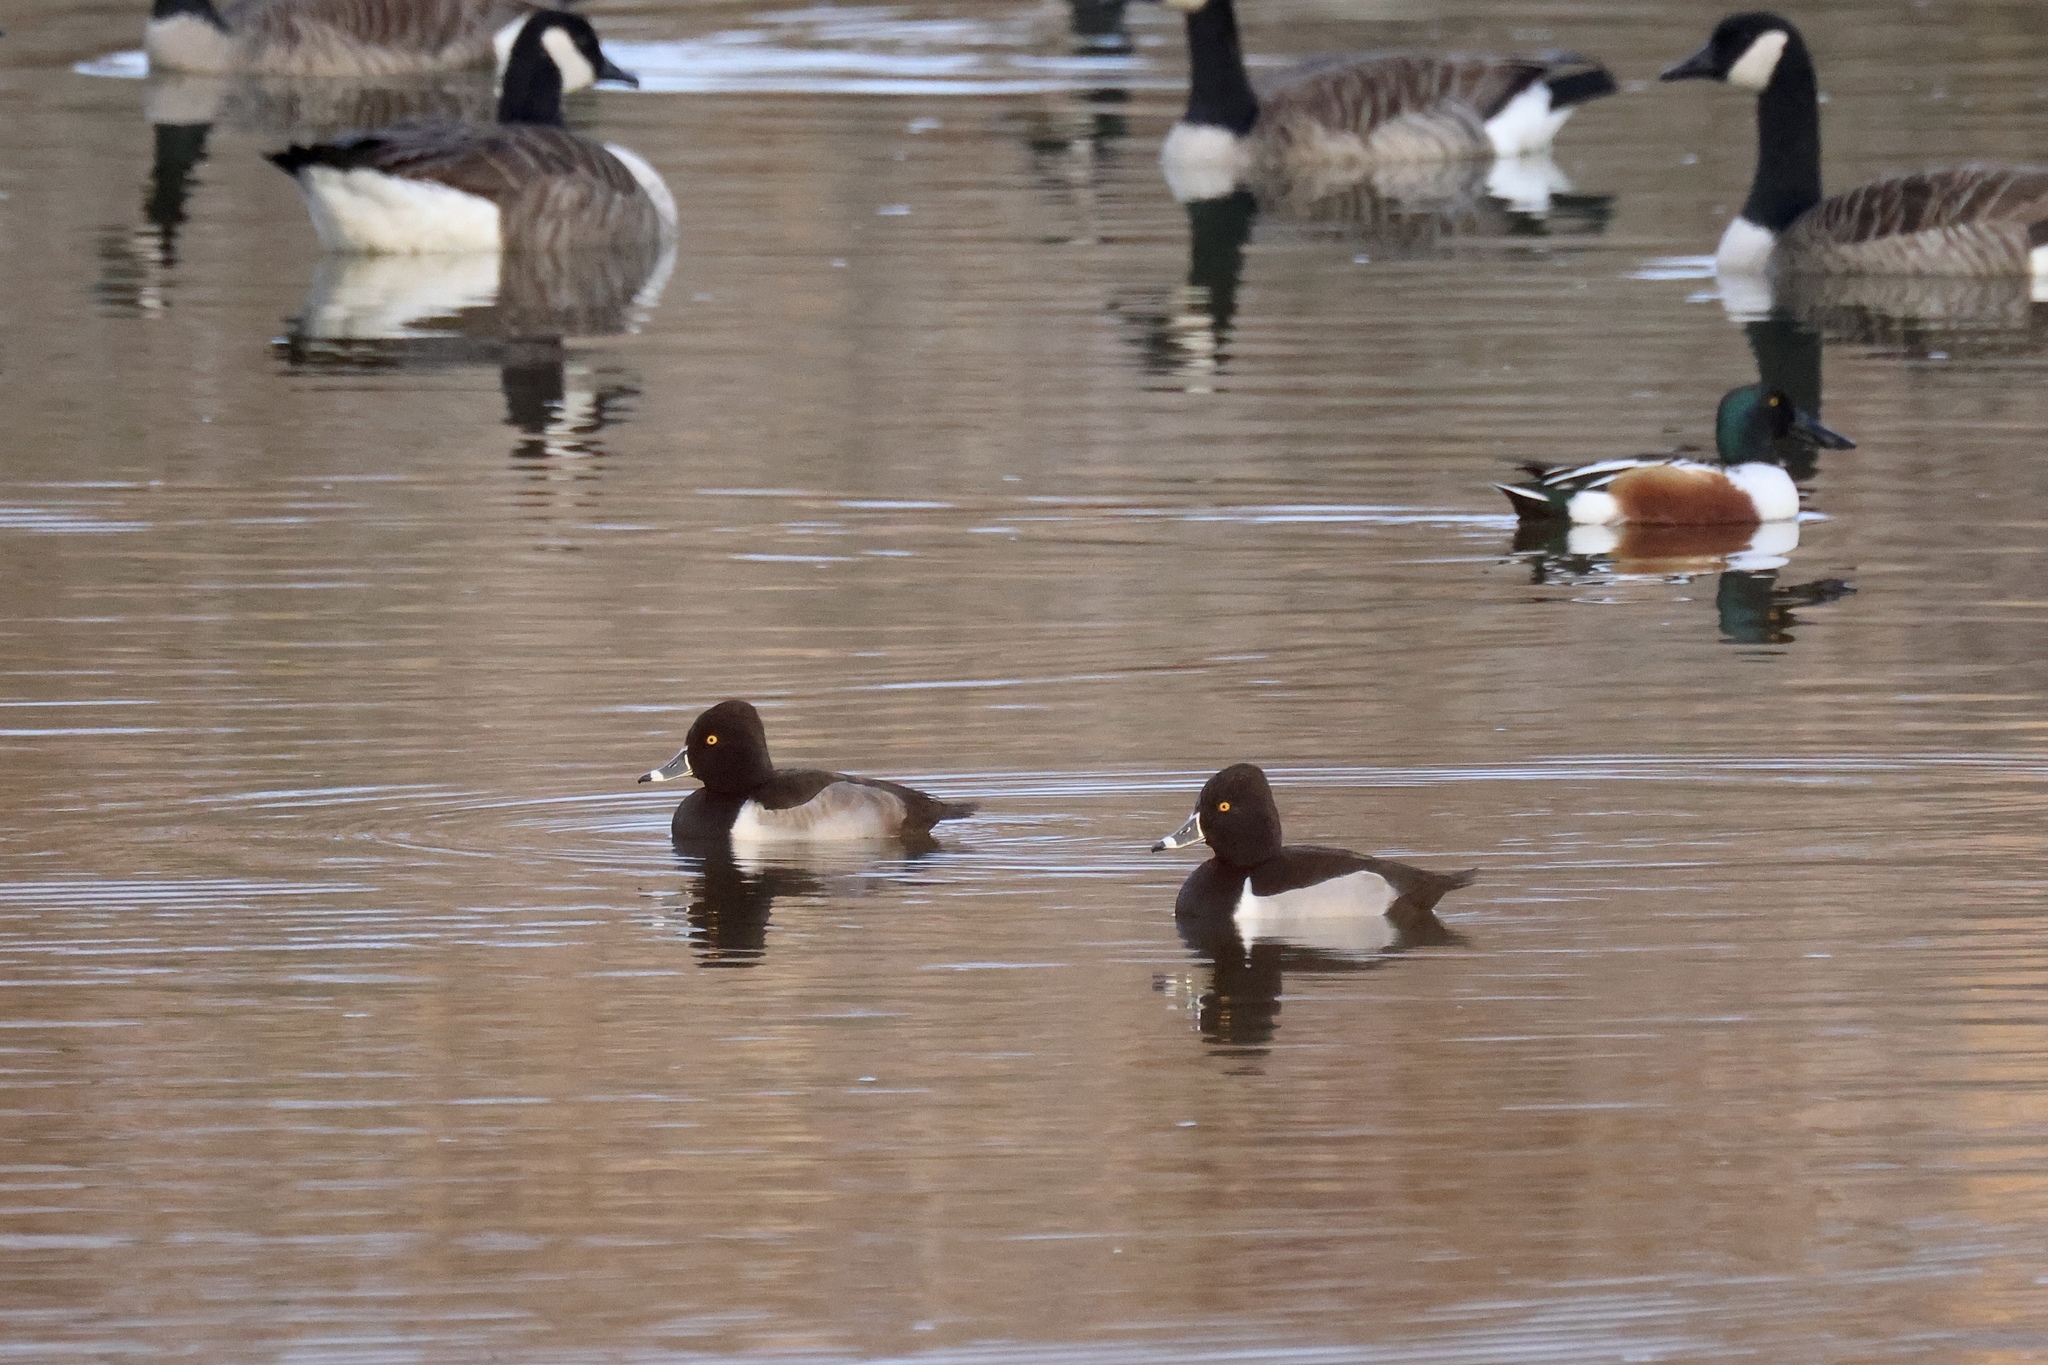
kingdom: Animalia
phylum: Chordata
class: Aves
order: Anseriformes
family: Anatidae
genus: Spatula
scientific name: Spatula clypeata
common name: Northern shoveler
